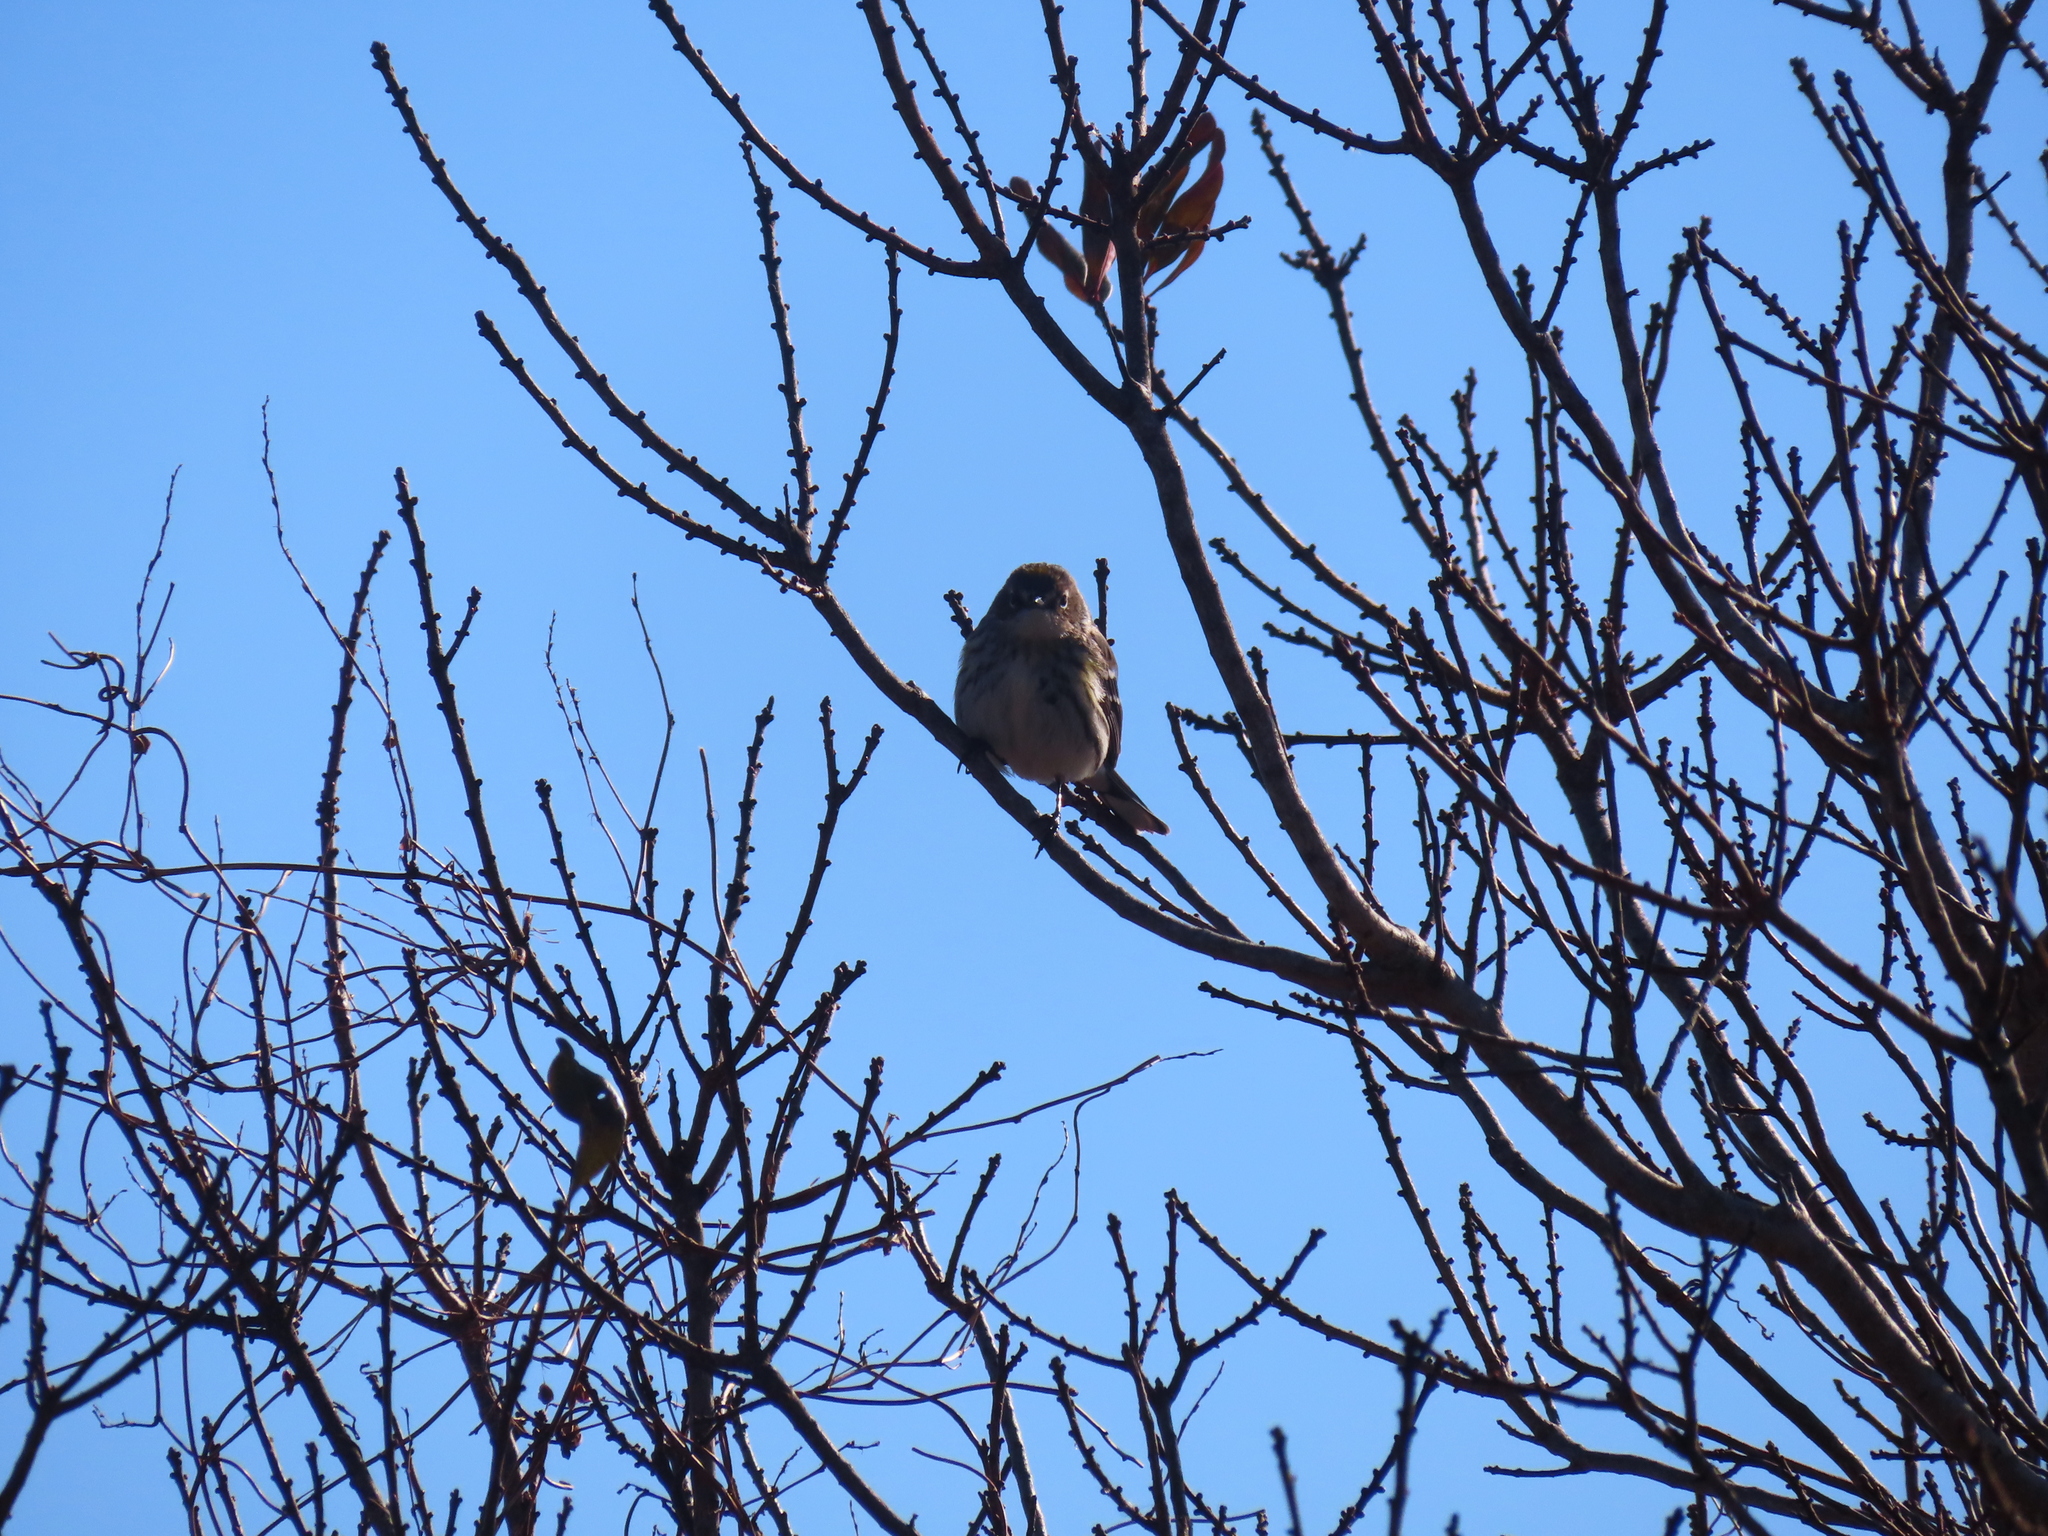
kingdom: Animalia
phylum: Chordata
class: Aves
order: Passeriformes
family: Parulidae
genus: Setophaga
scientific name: Setophaga coronata
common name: Myrtle warbler
